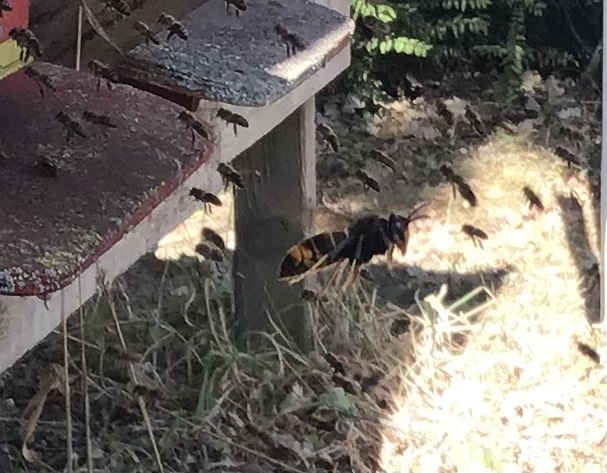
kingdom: Animalia
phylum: Arthropoda
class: Insecta
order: Hymenoptera
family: Vespidae
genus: Vespa
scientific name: Vespa velutina
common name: Asian hornet
